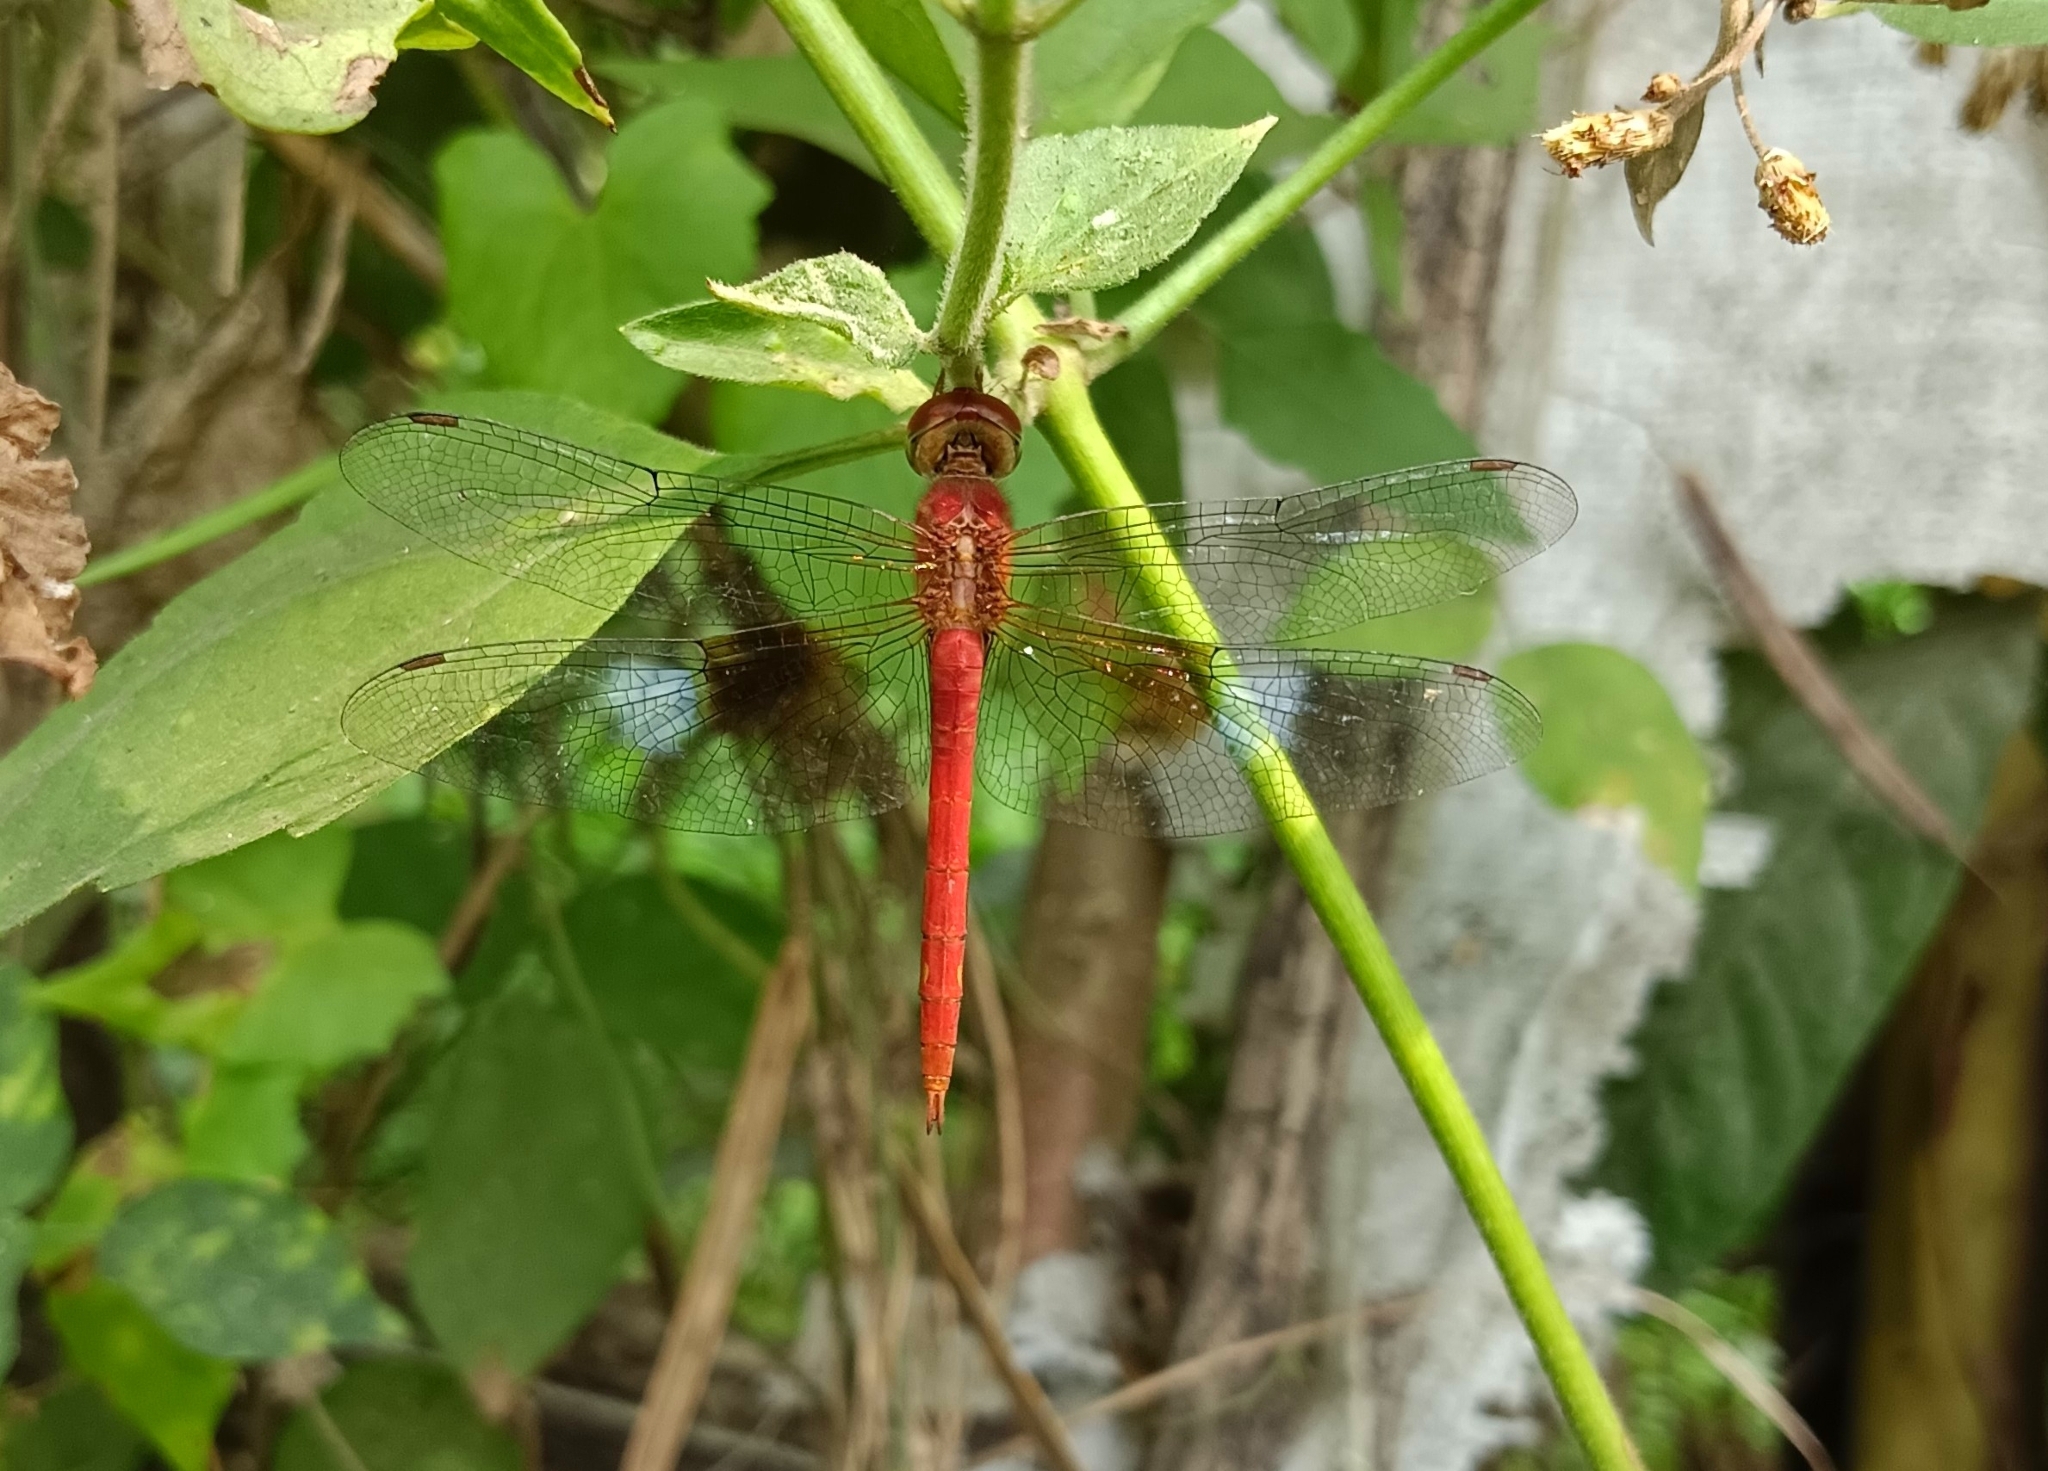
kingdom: Animalia
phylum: Arthropoda
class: Insecta
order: Odonata
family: Libellulidae
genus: Tholymis
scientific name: Tholymis tillarga
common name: Coral-tailed cloud wing
